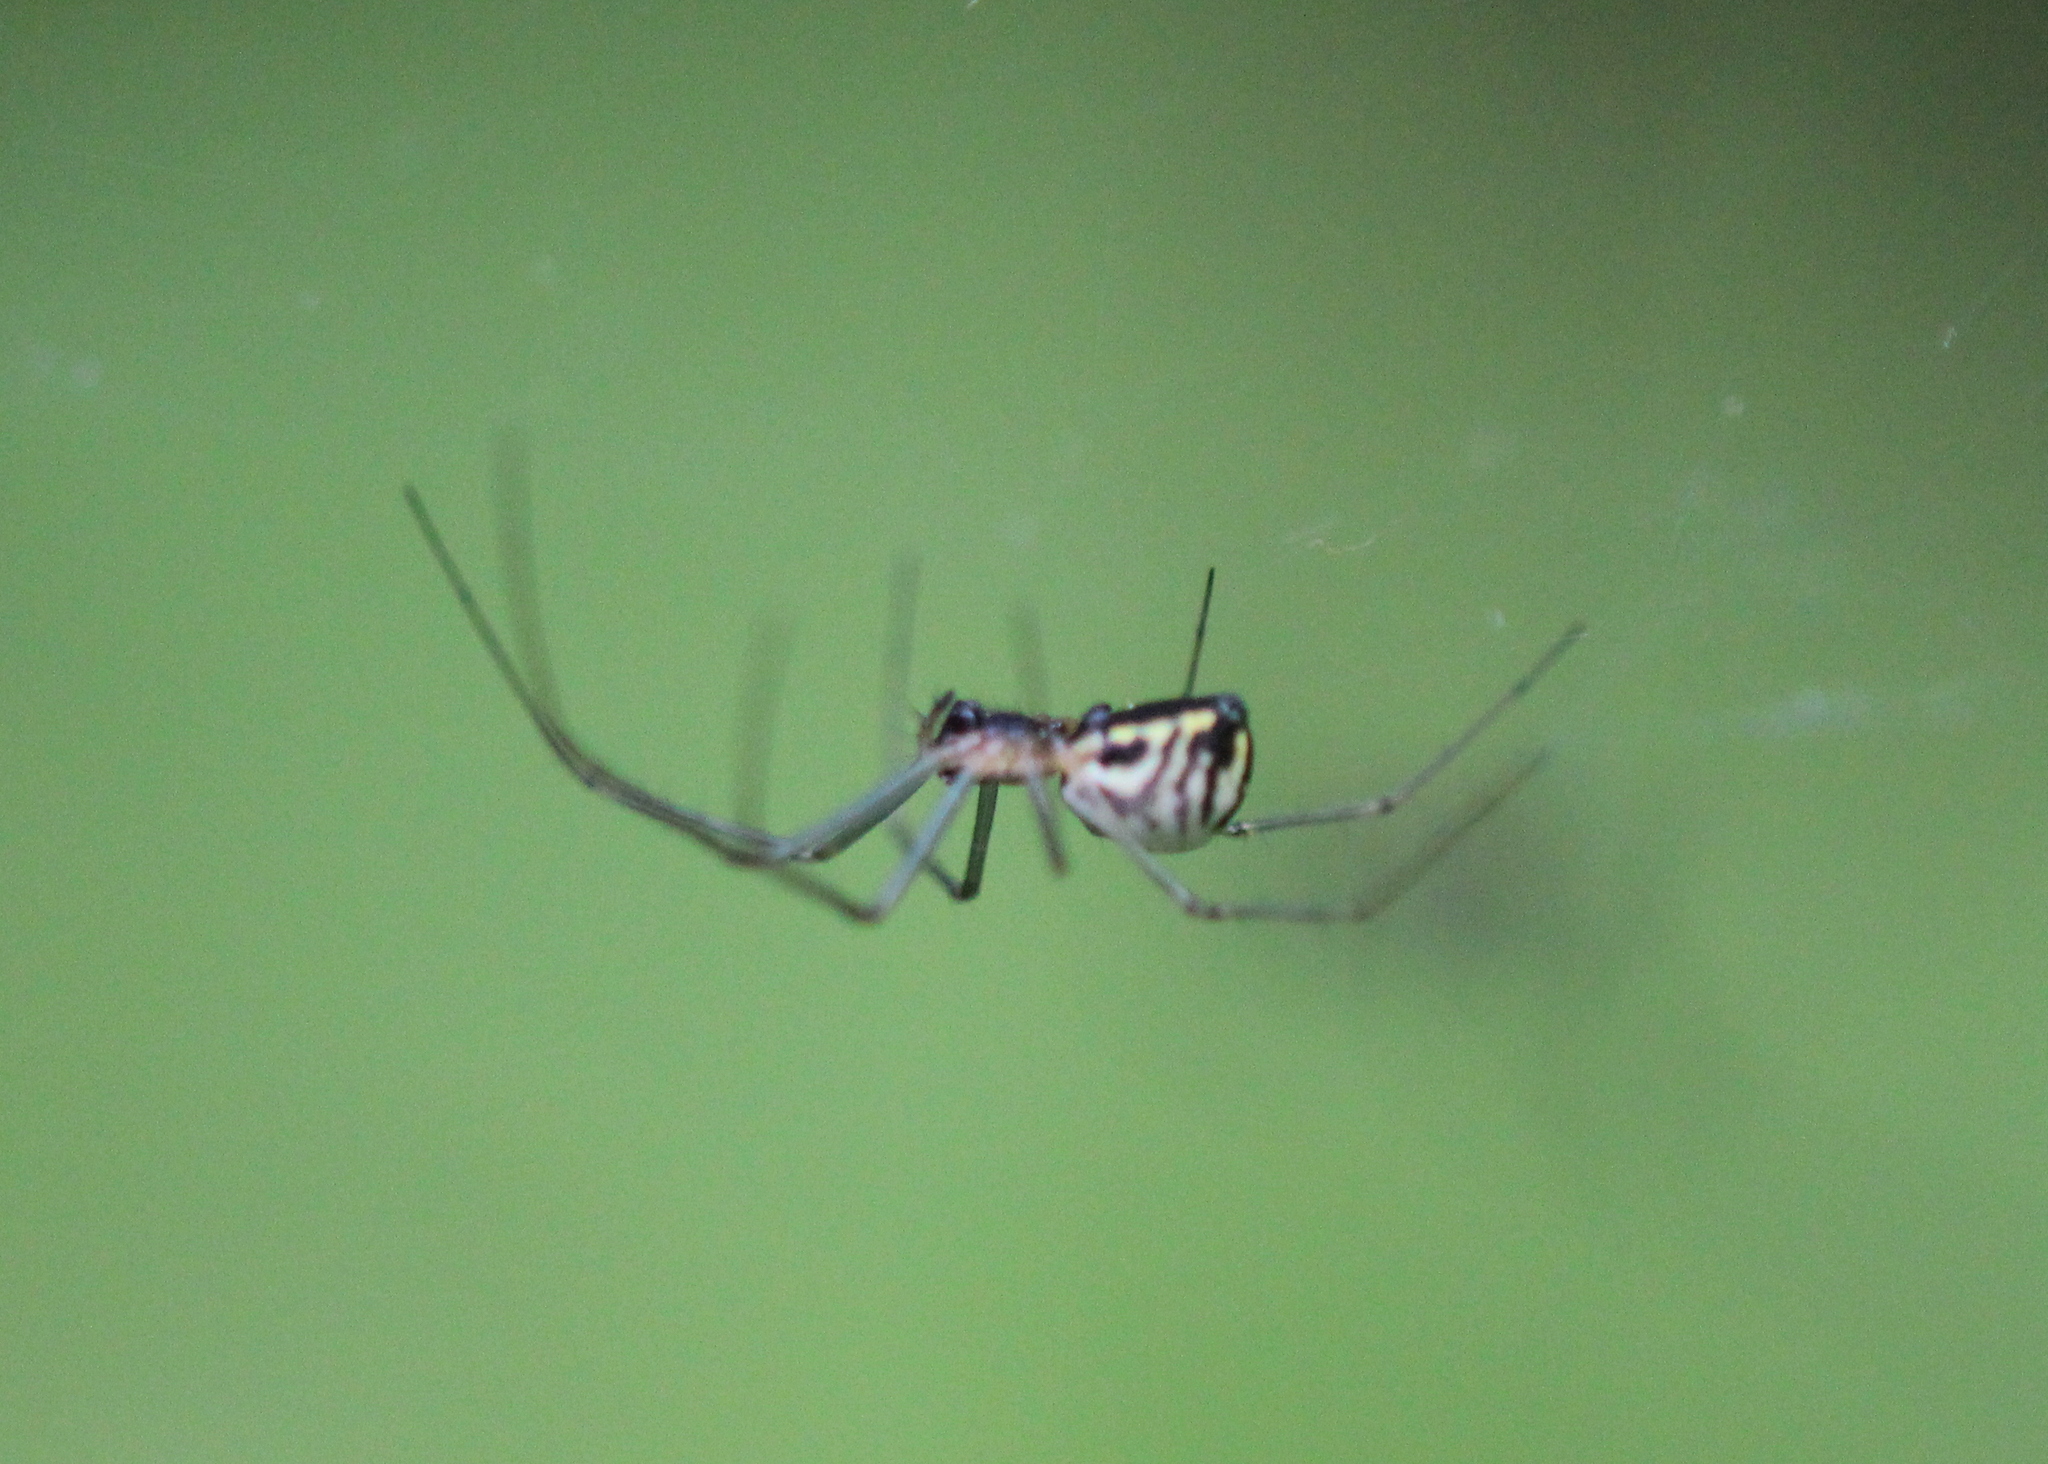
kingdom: Animalia
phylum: Arthropoda
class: Arachnida
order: Araneae
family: Linyphiidae
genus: Neriene
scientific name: Neriene radiata
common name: Filmy dome spider
